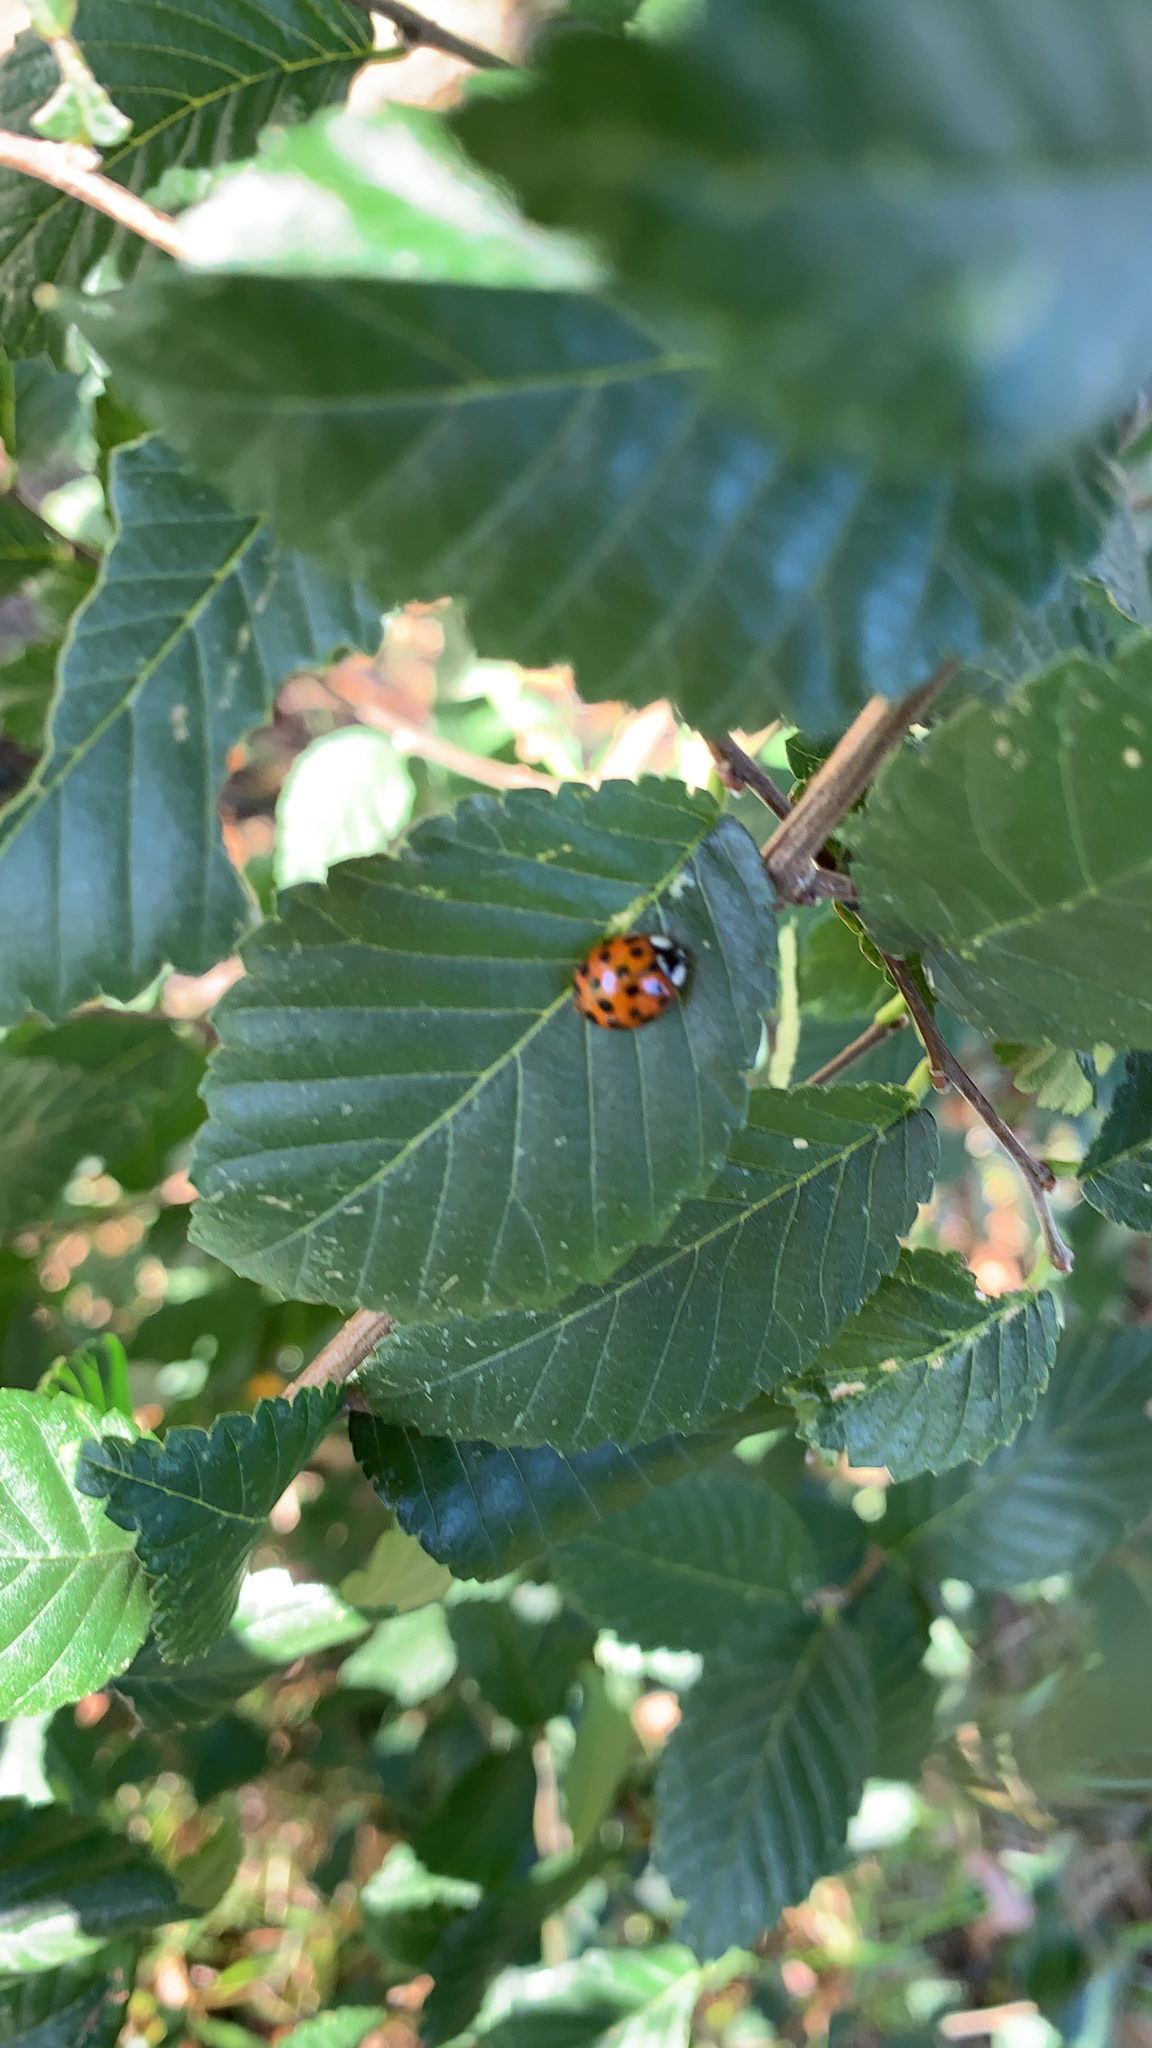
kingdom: Animalia
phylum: Arthropoda
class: Insecta
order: Coleoptera
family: Coccinellidae
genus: Harmonia
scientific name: Harmonia axyridis
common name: Harlequin ladybird
